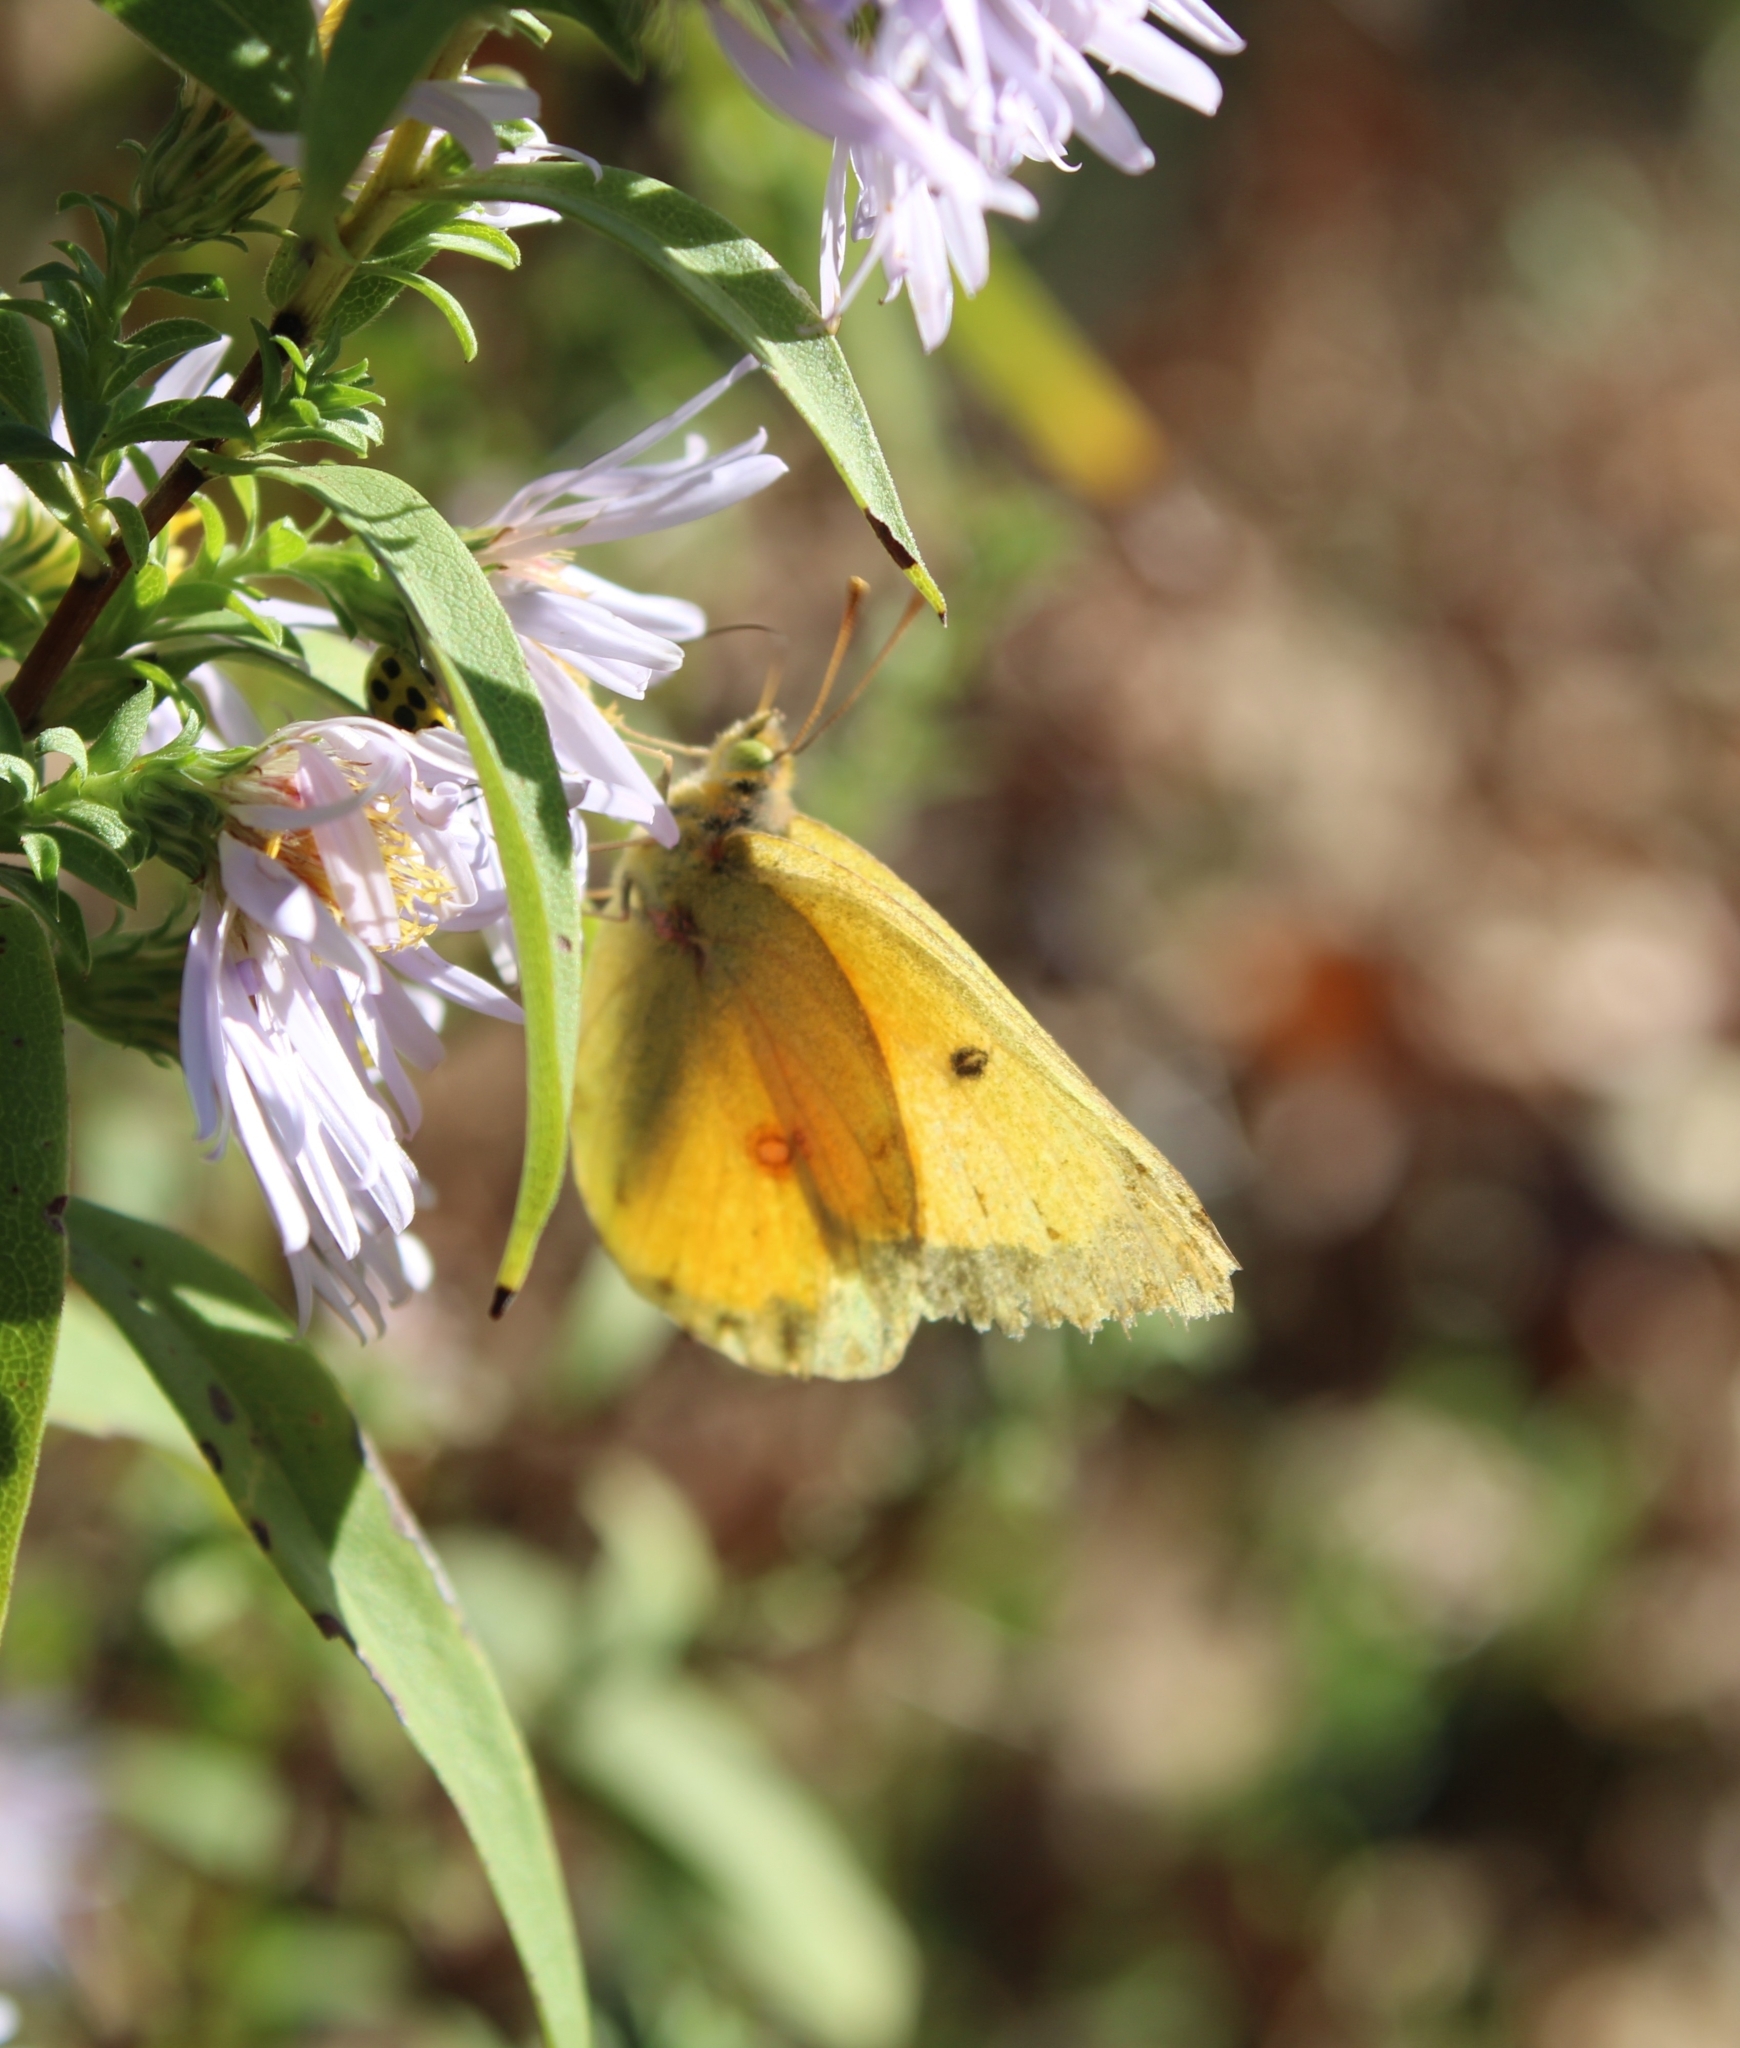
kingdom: Animalia
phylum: Arthropoda
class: Insecta
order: Lepidoptera
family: Pieridae
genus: Colias
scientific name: Colias eurytheme
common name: Alfalfa butterfly
